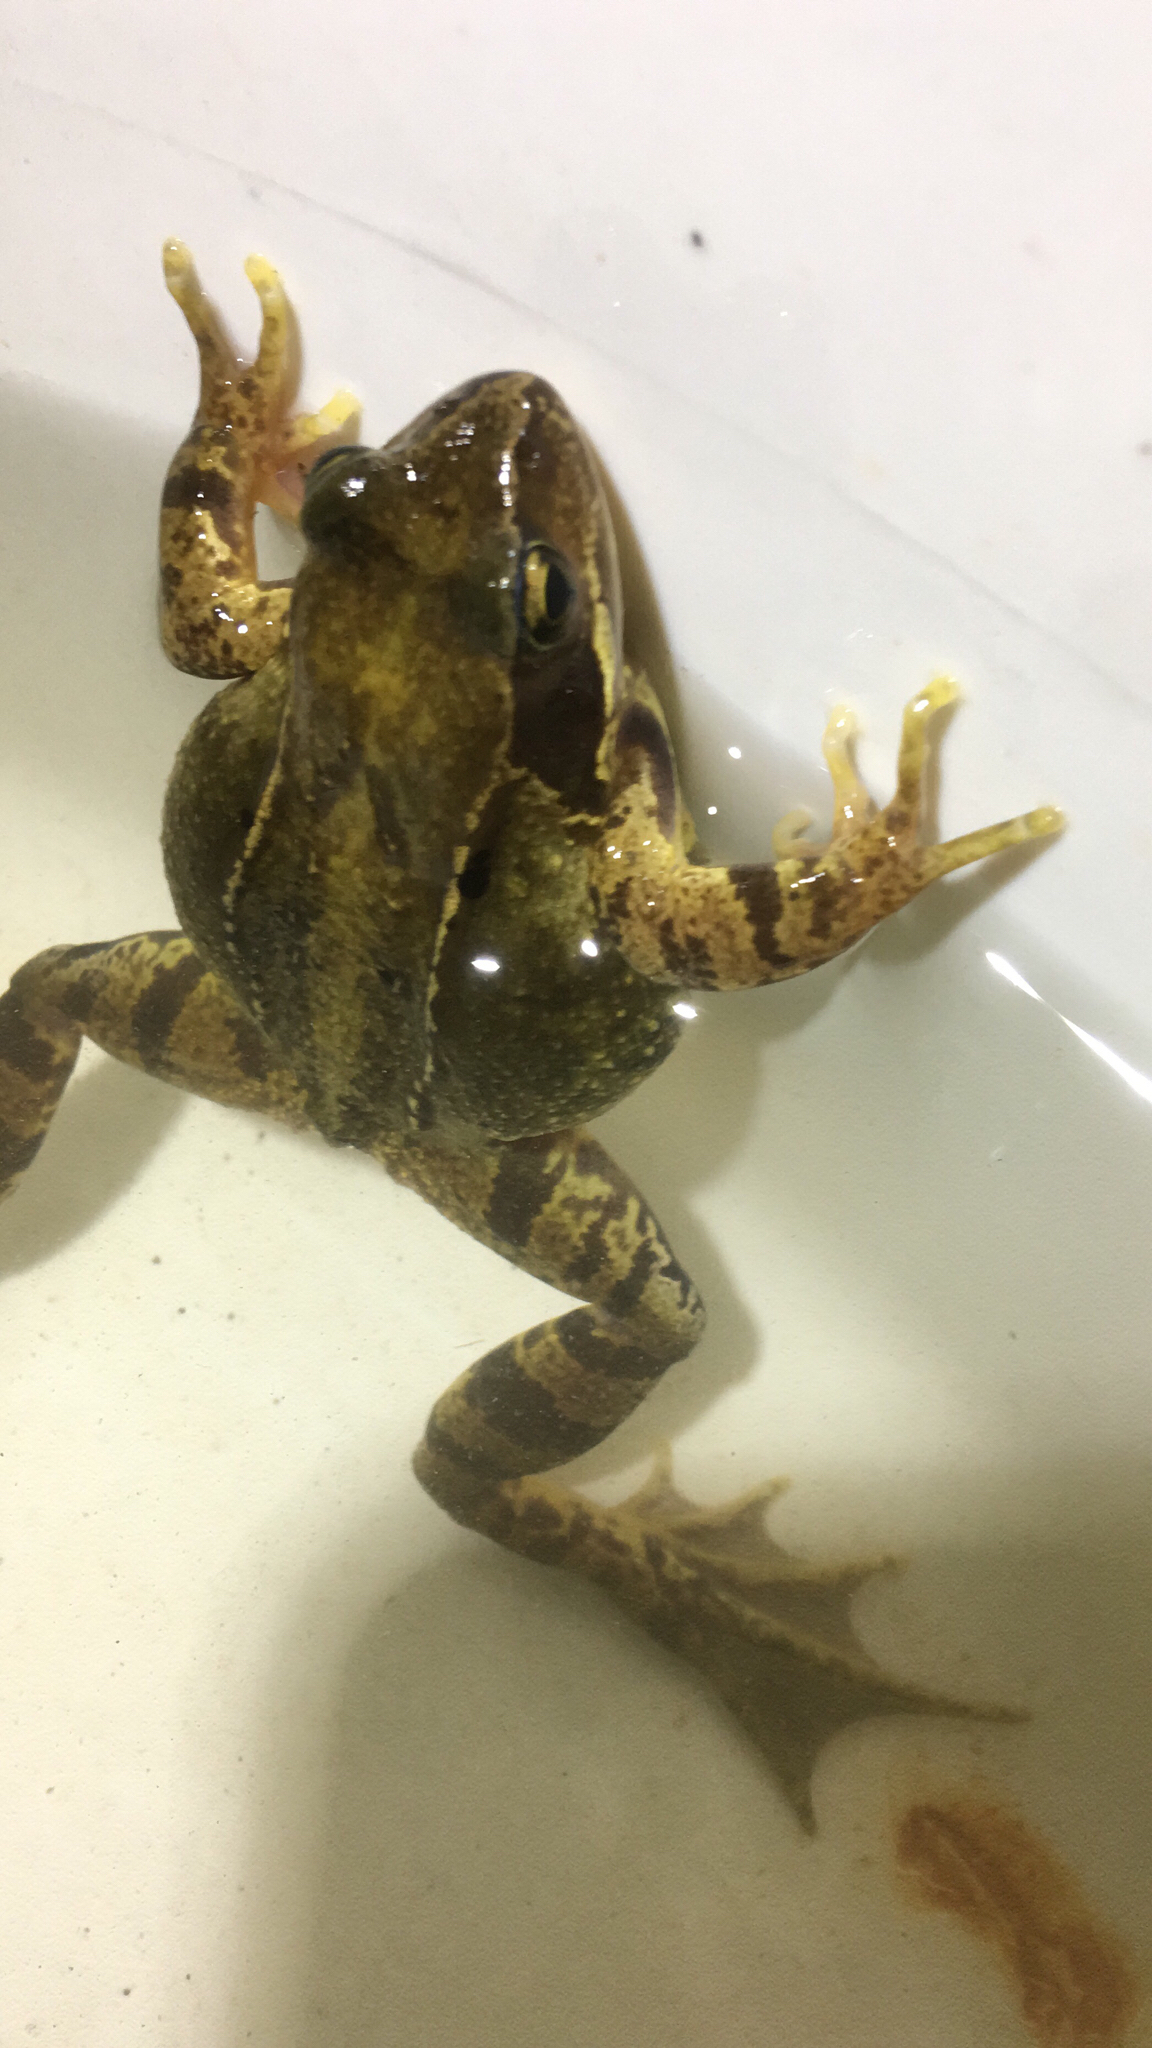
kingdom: Animalia
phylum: Chordata
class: Amphibia
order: Anura
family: Ranidae
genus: Rana
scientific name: Rana temporaria
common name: Common frog
